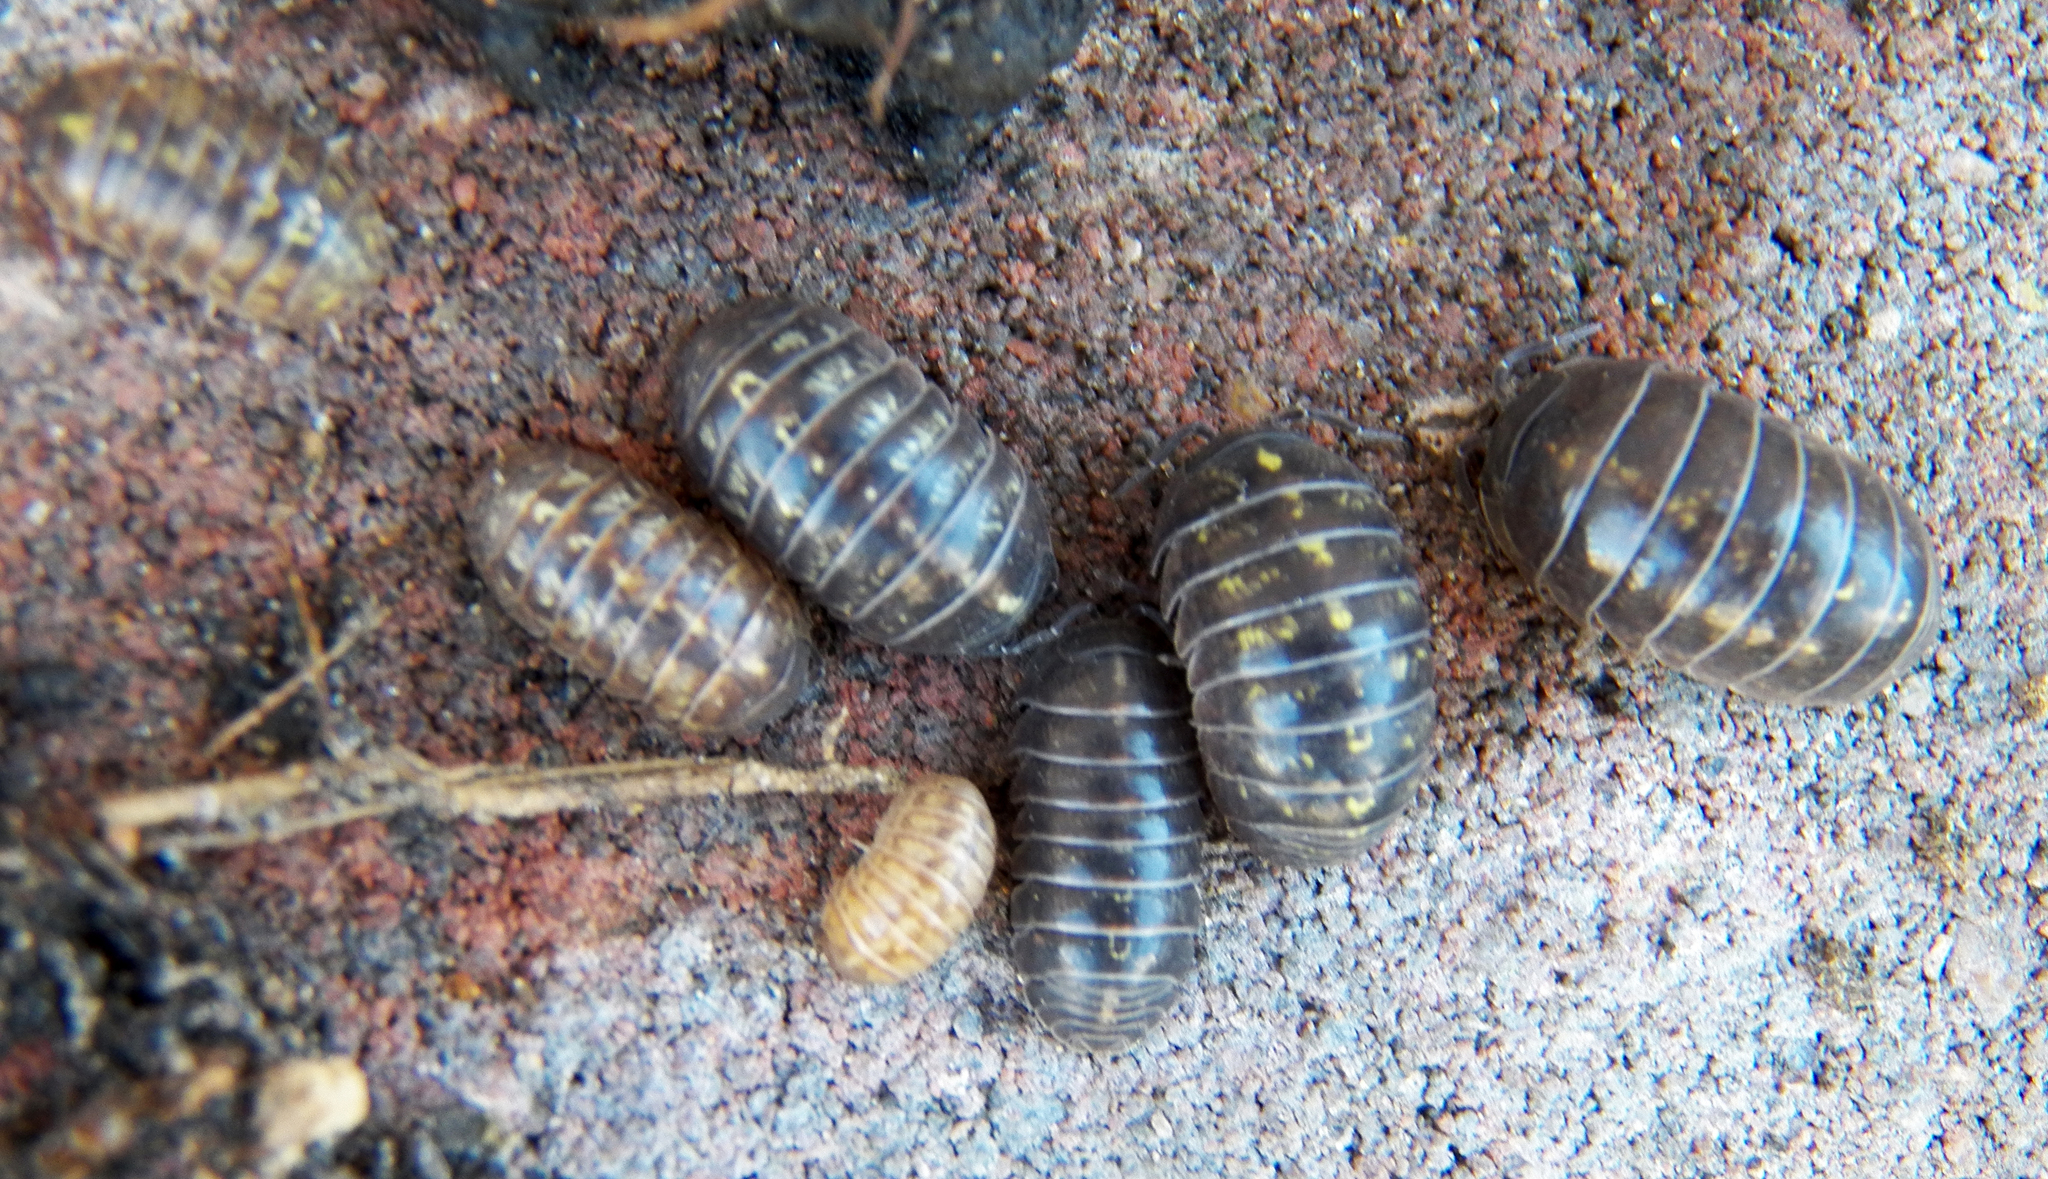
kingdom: Animalia
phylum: Arthropoda
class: Malacostraca
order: Isopoda
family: Armadillidiidae
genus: Armadillidium
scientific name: Armadillidium vulgare
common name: Common pill woodlouse
